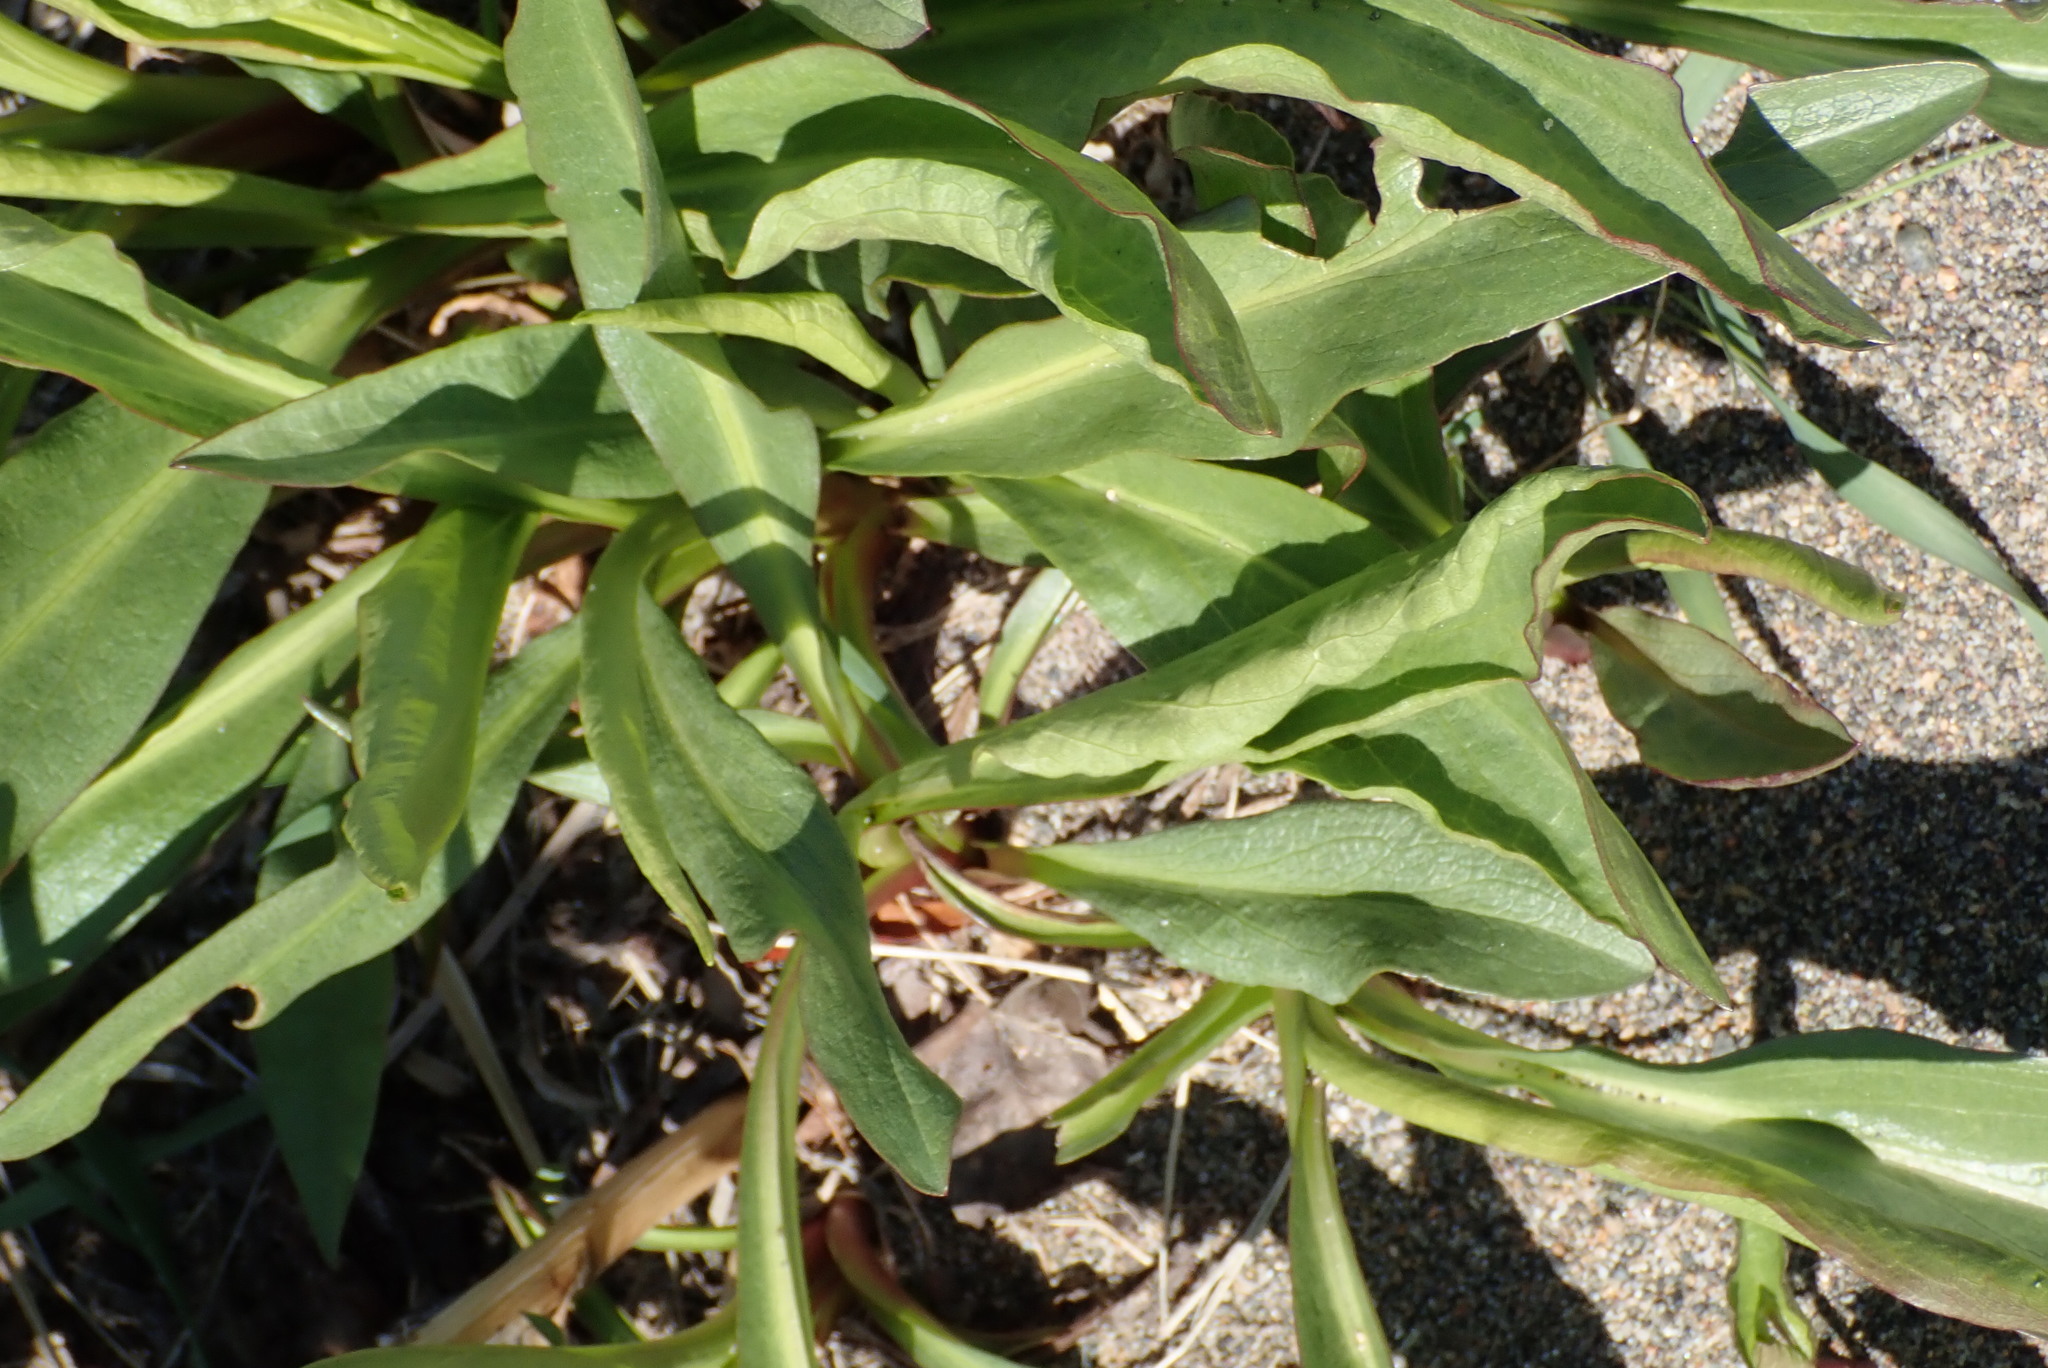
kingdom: Plantae
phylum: Tracheophyta
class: Magnoliopsida
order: Asterales
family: Asteraceae
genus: Solidago
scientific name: Solidago sempervirens
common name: Salt-marsh goldenrod
